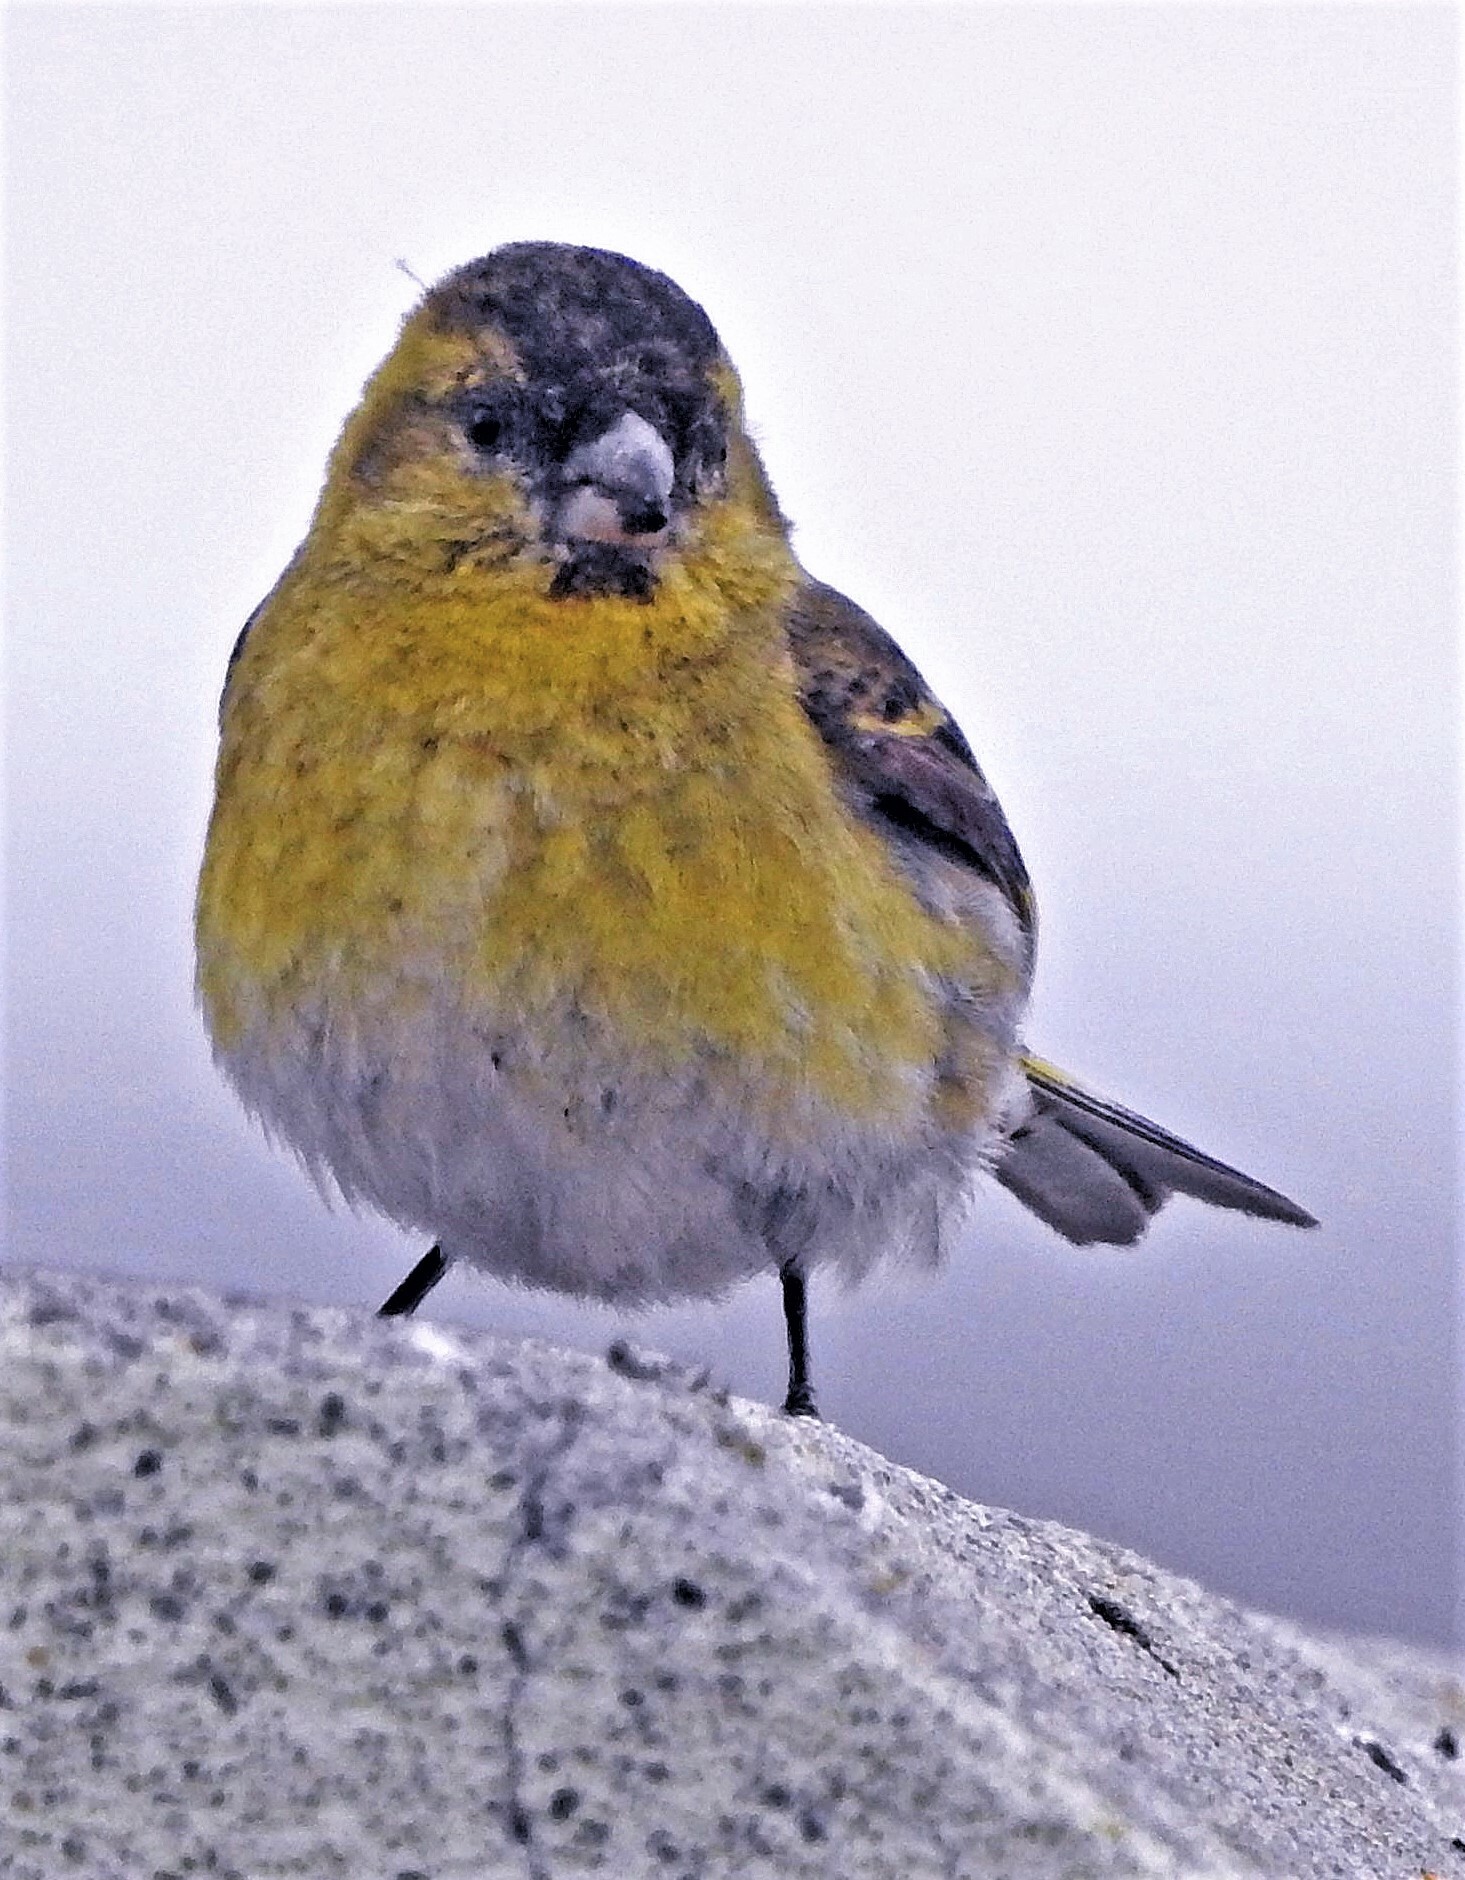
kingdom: Animalia
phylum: Chordata
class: Aves
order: Passeriformes
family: Fringillidae
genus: Spinus
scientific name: Spinus barbatus
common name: Black-chinned siskin
